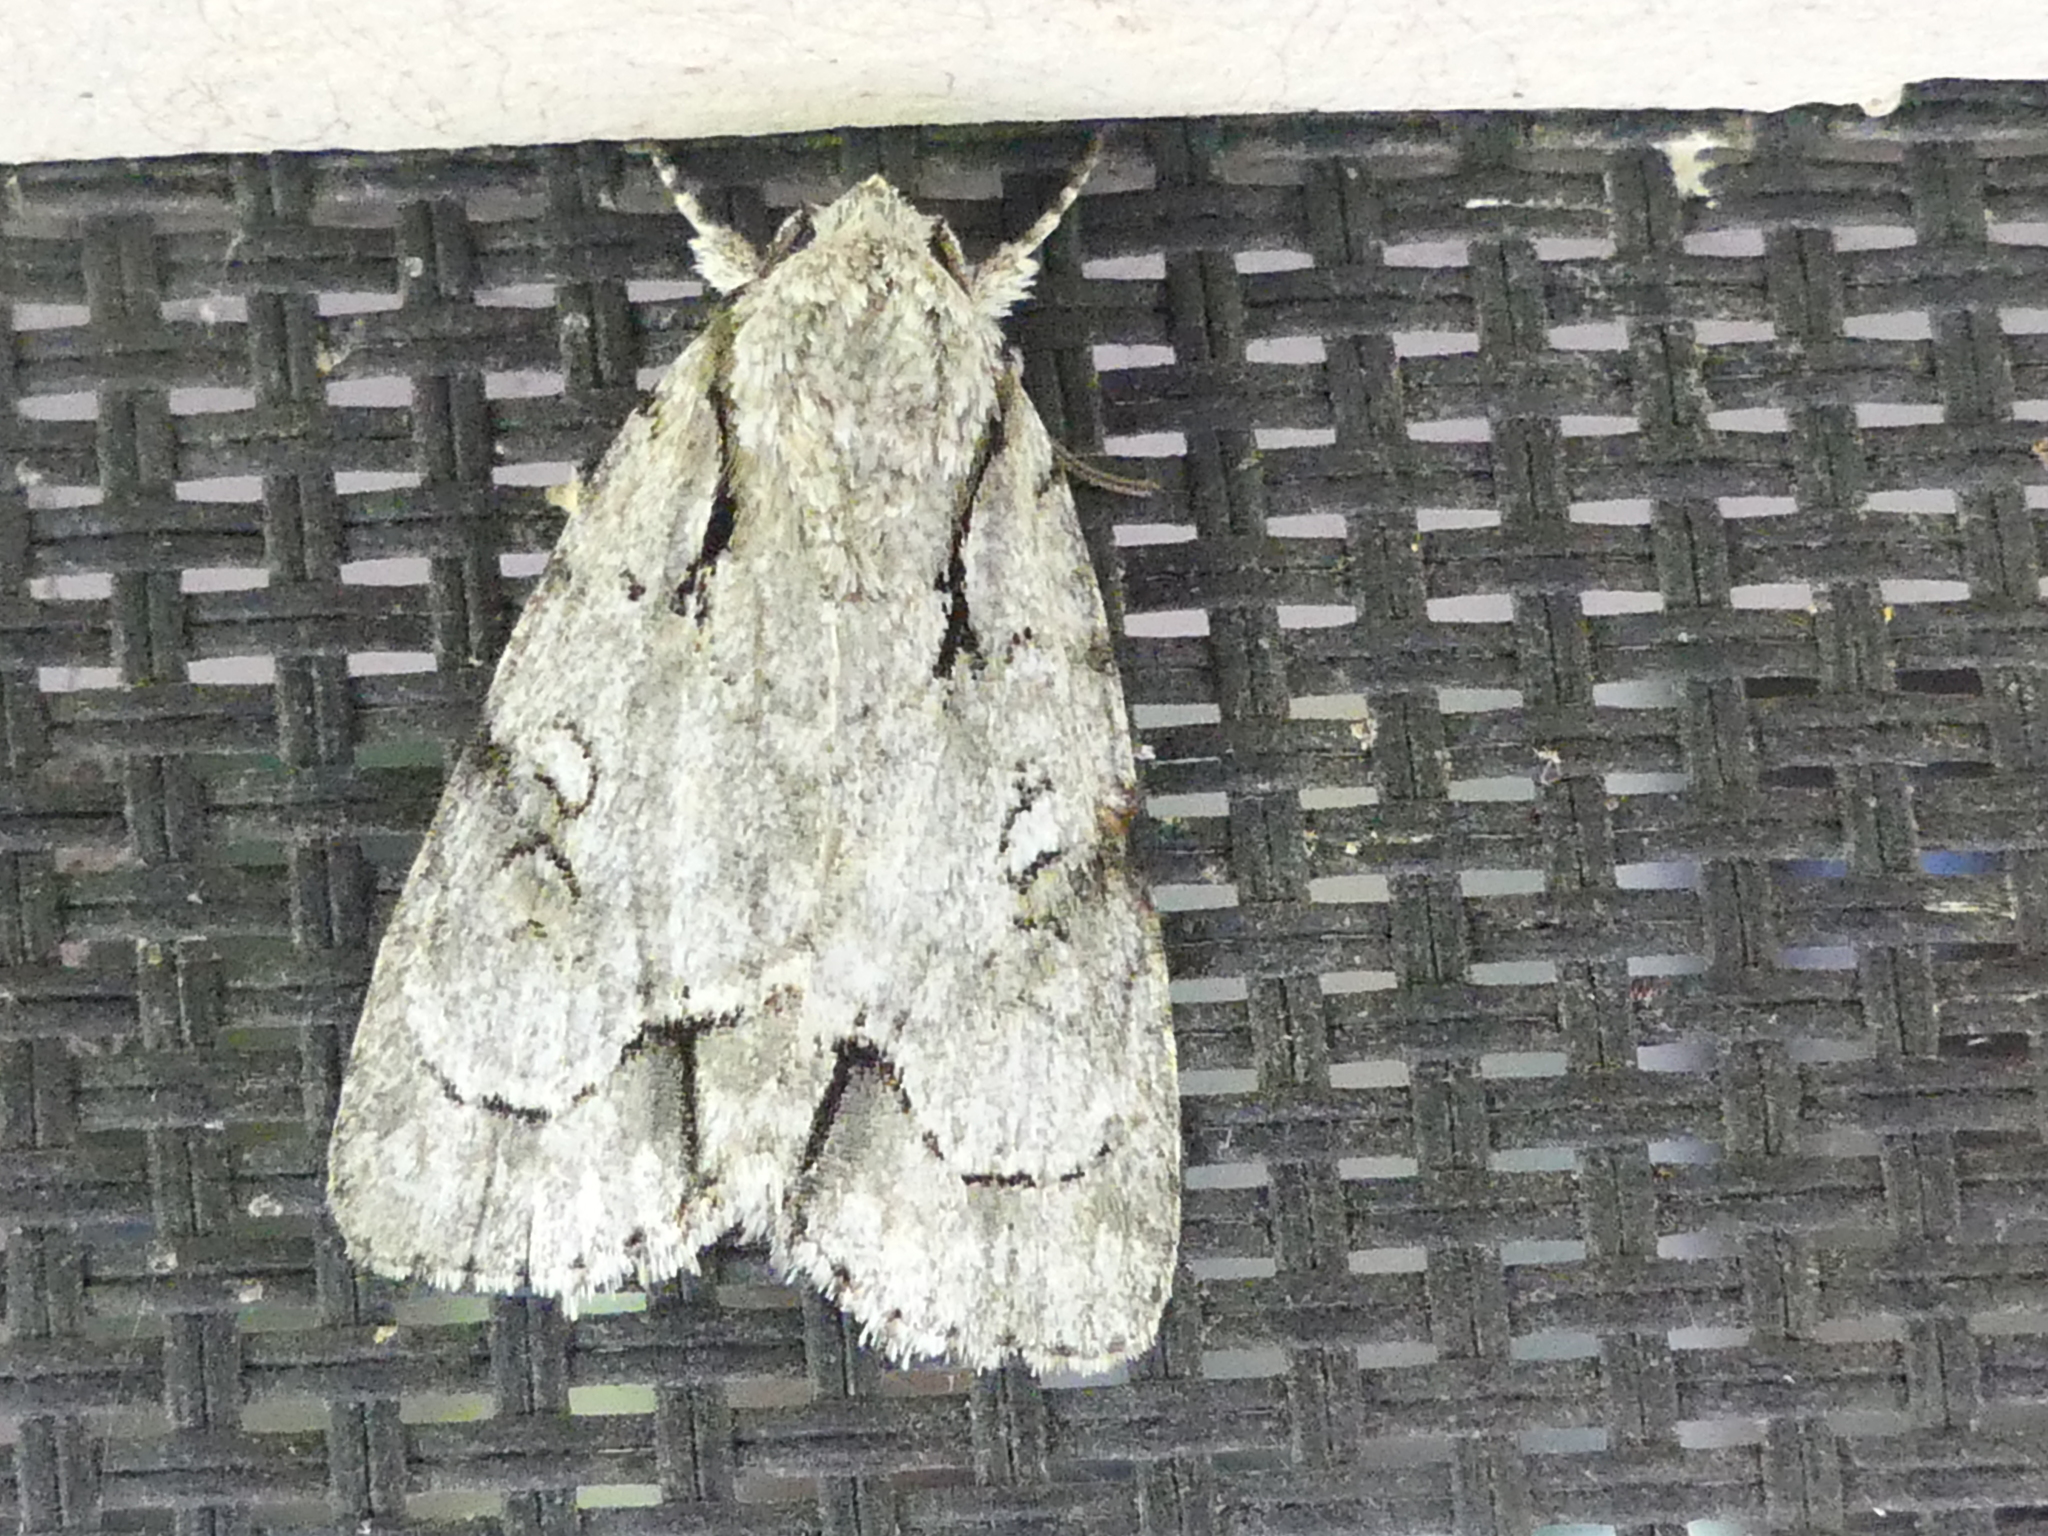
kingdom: Animalia
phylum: Arthropoda
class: Insecta
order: Lepidoptera
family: Noctuidae
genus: Acronicta
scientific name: Acronicta vinnula
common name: Delightful dagger
